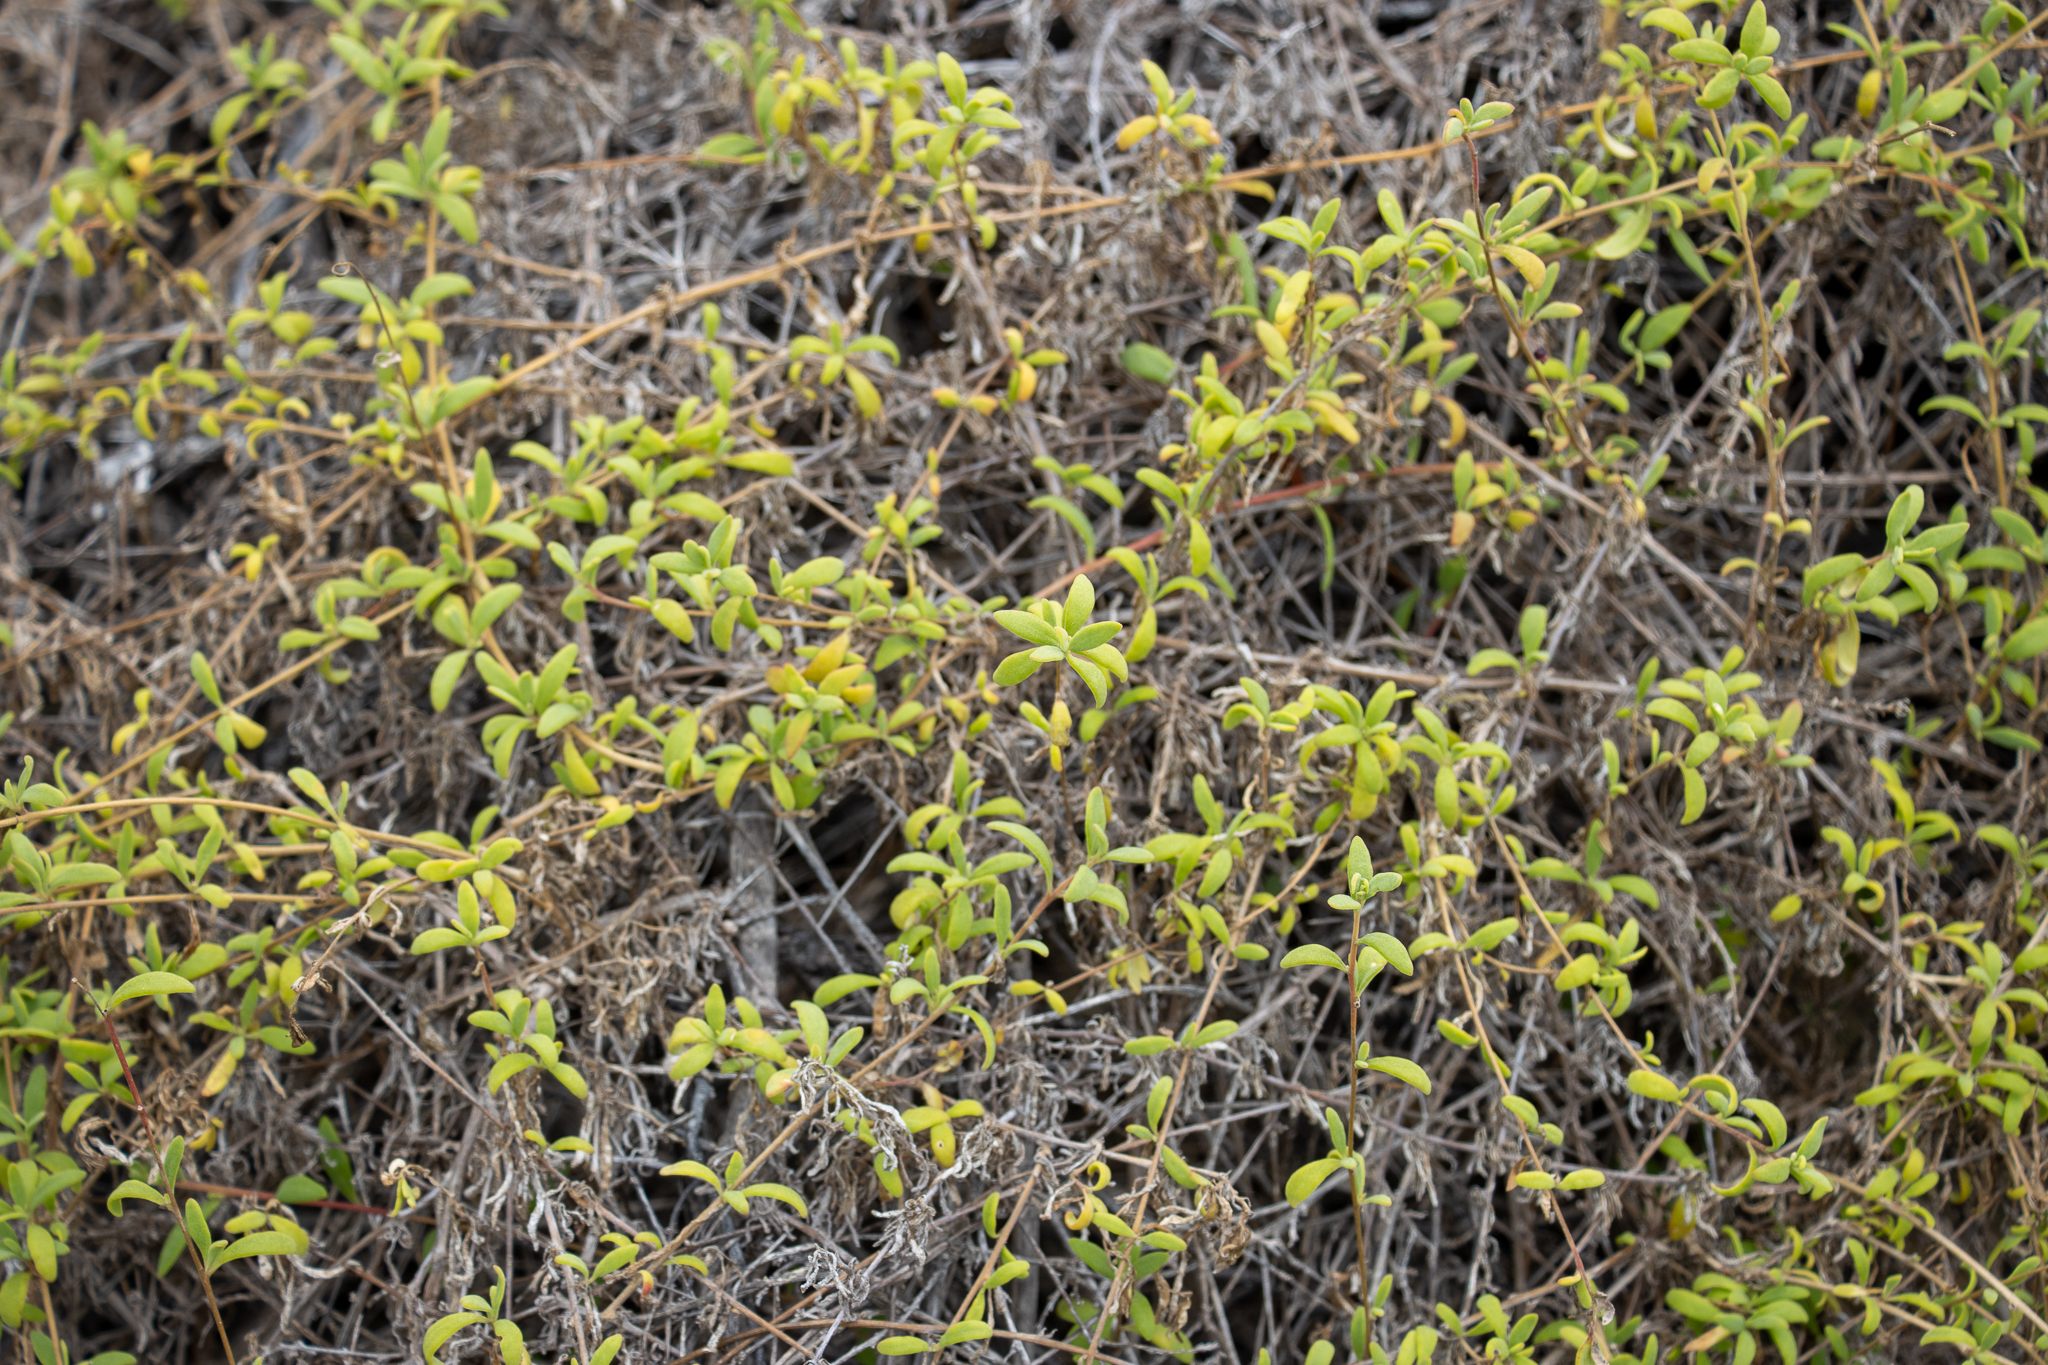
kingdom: Plantae
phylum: Tracheophyta
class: Magnoliopsida
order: Caryophyllales
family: Aizoaceae
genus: Tetragonia
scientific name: Tetragonia implexicoma
